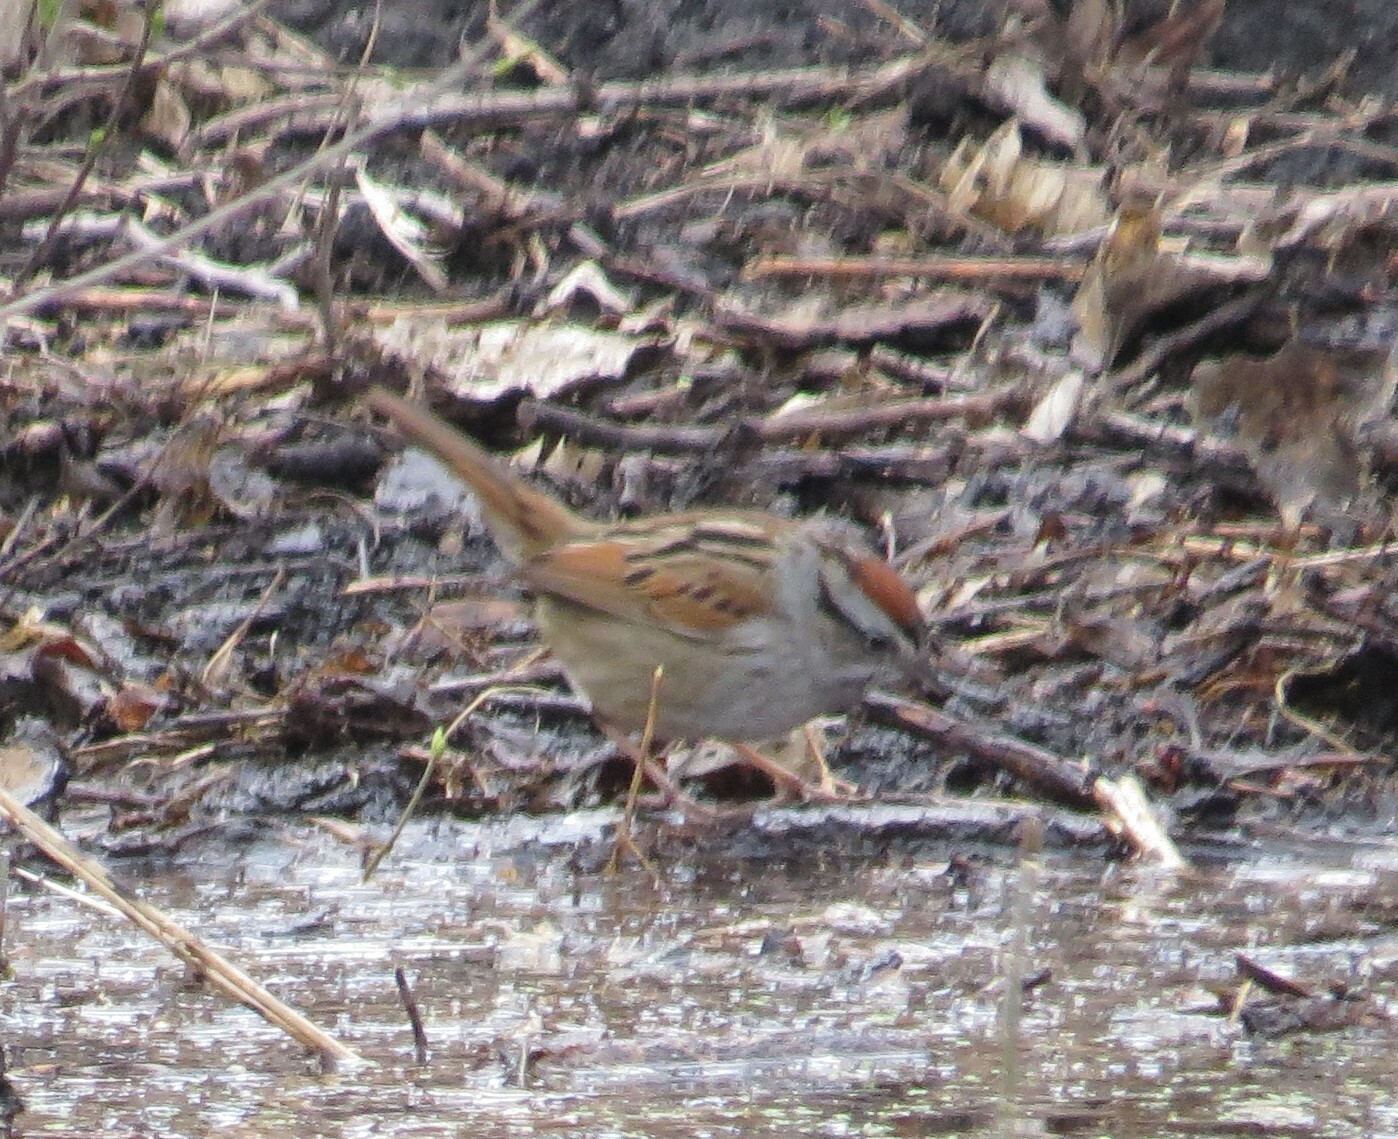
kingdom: Animalia
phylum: Chordata
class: Aves
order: Passeriformes
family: Passerellidae
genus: Melospiza
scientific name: Melospiza georgiana
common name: Swamp sparrow
